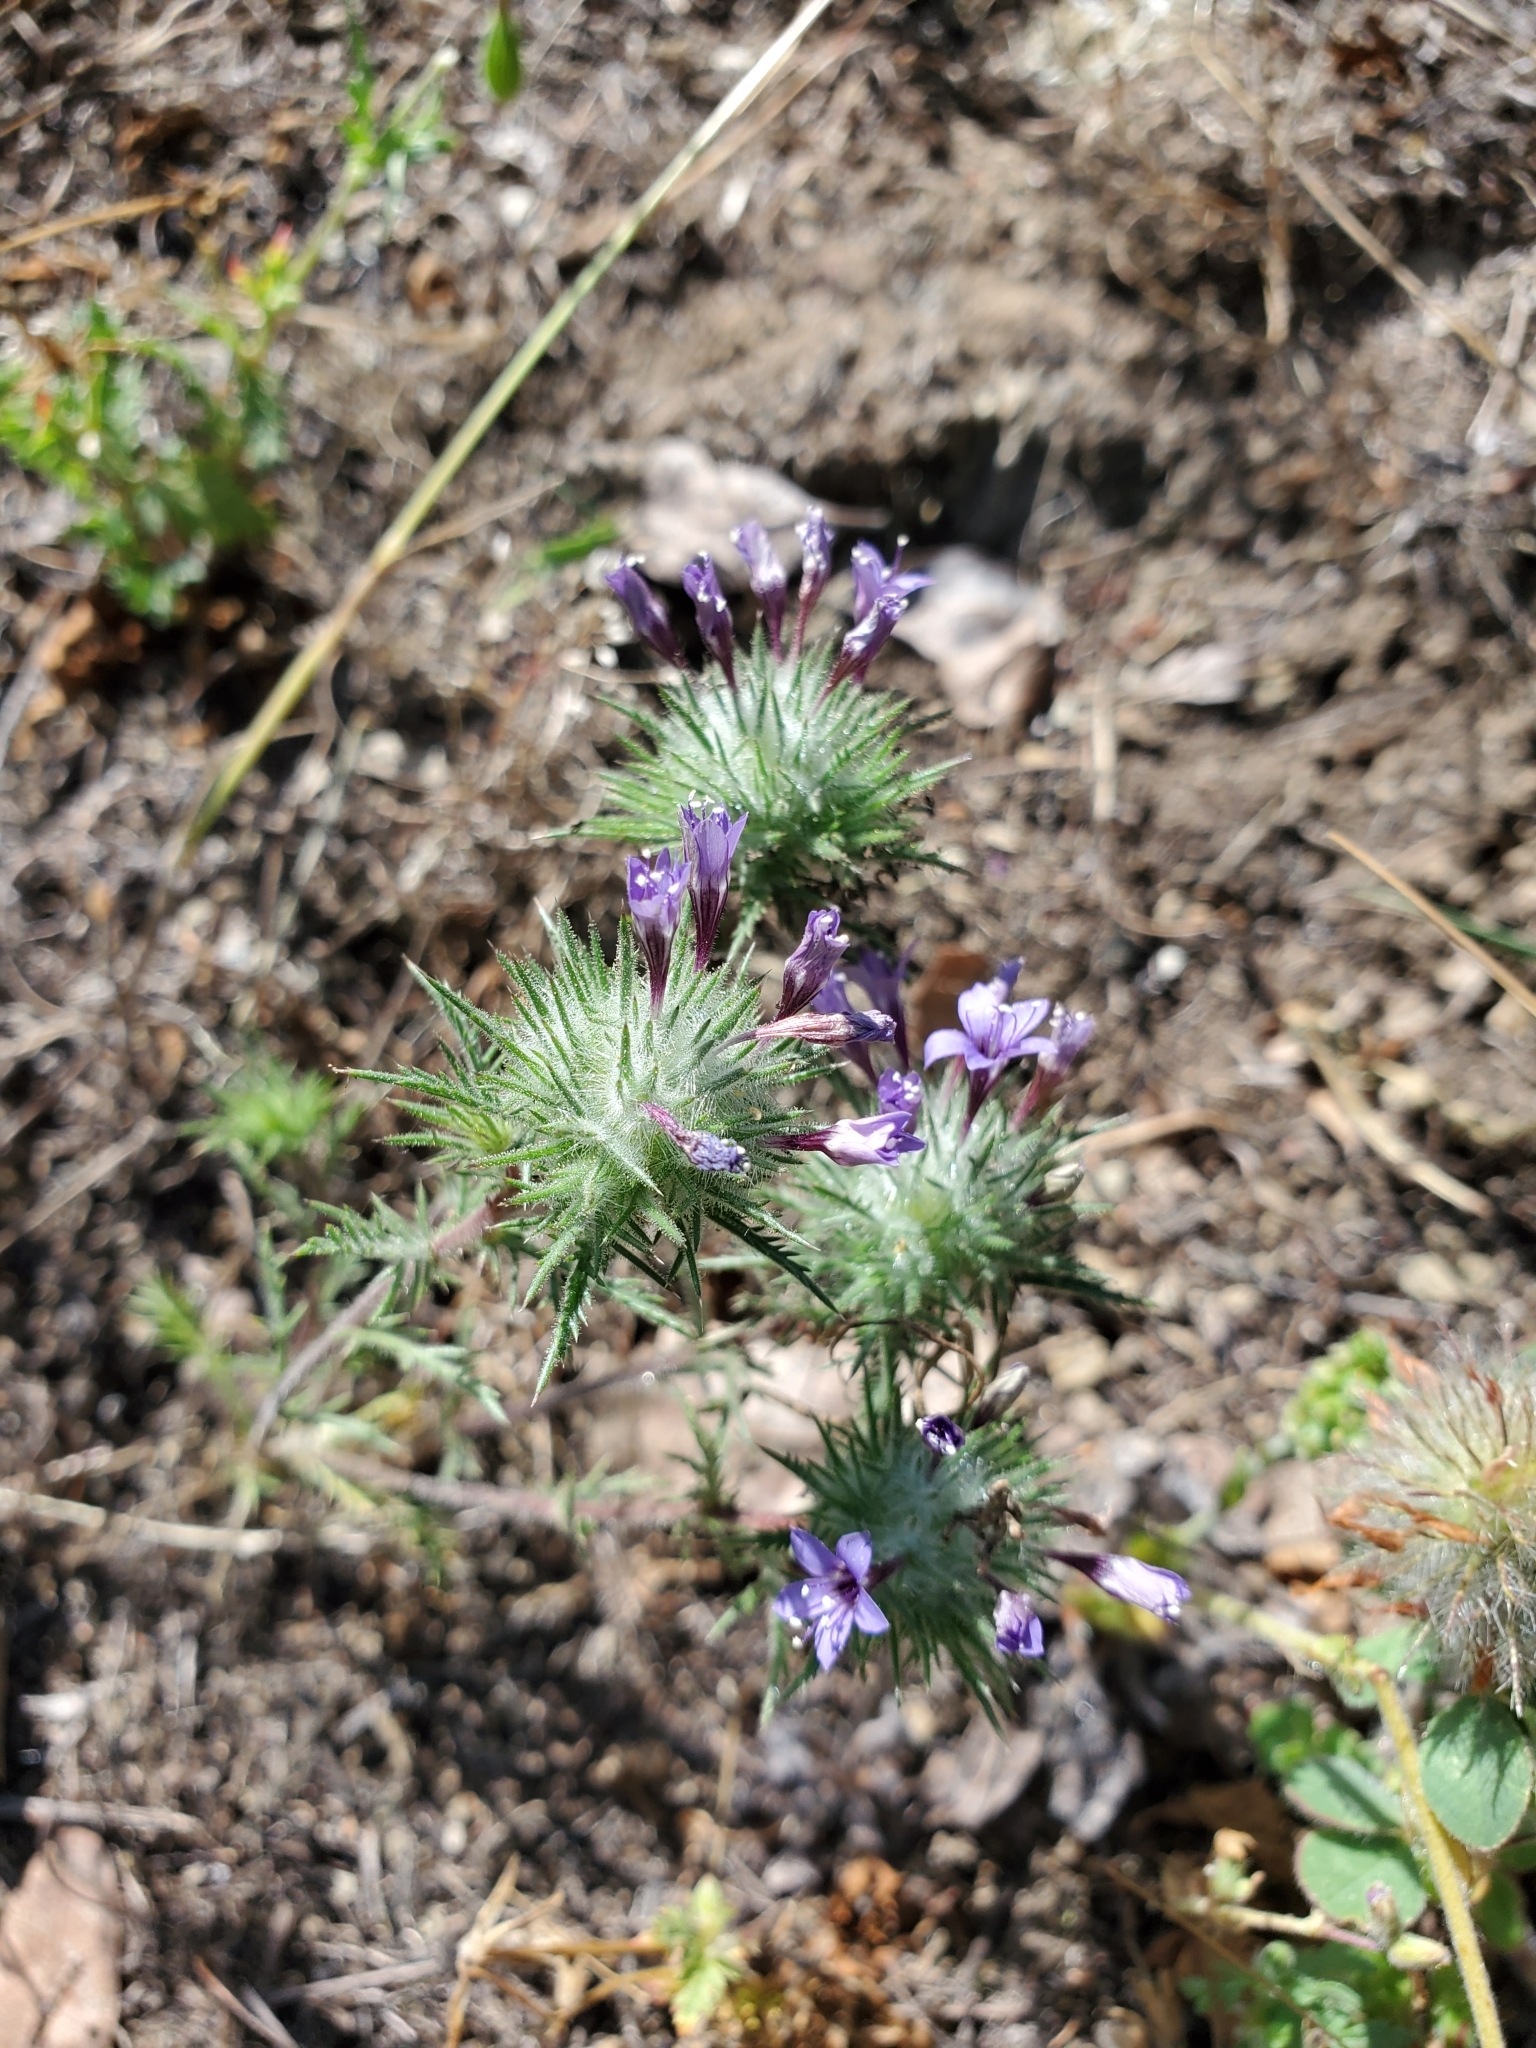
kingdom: Plantae
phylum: Tracheophyta
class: Magnoliopsida
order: Ericales
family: Polemoniaceae
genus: Navarretia
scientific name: Navarretia pubescens
